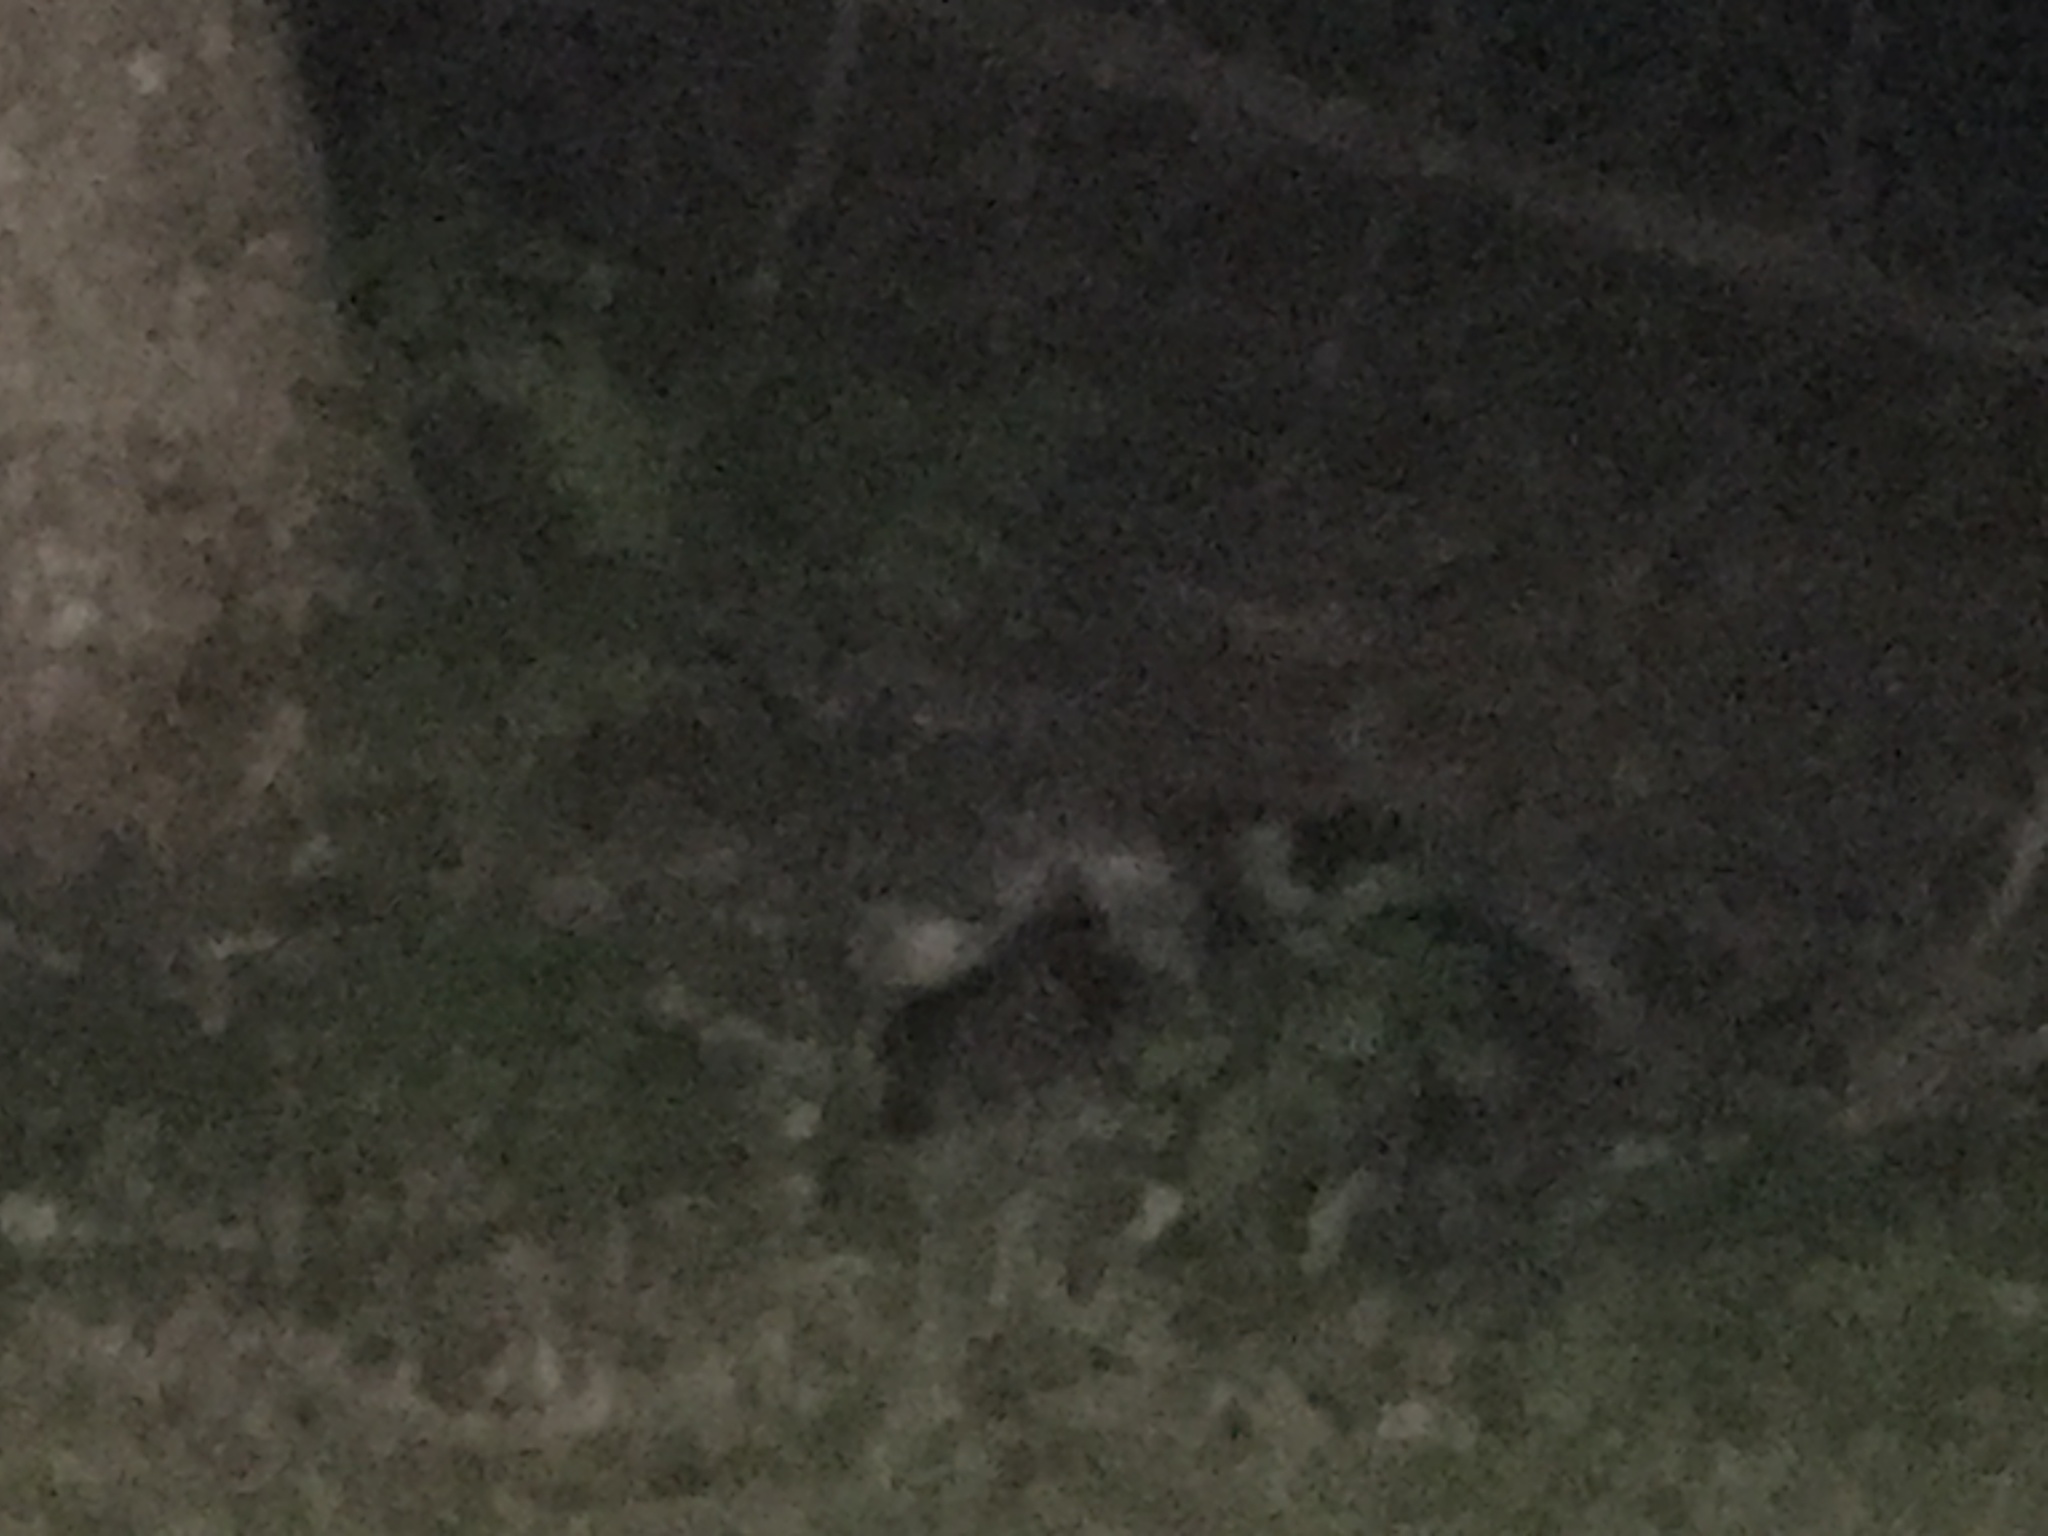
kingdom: Animalia
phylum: Chordata
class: Mammalia
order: Rodentia
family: Erethizontidae
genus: Erethizon
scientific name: Erethizon dorsatus
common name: North american porcupine
